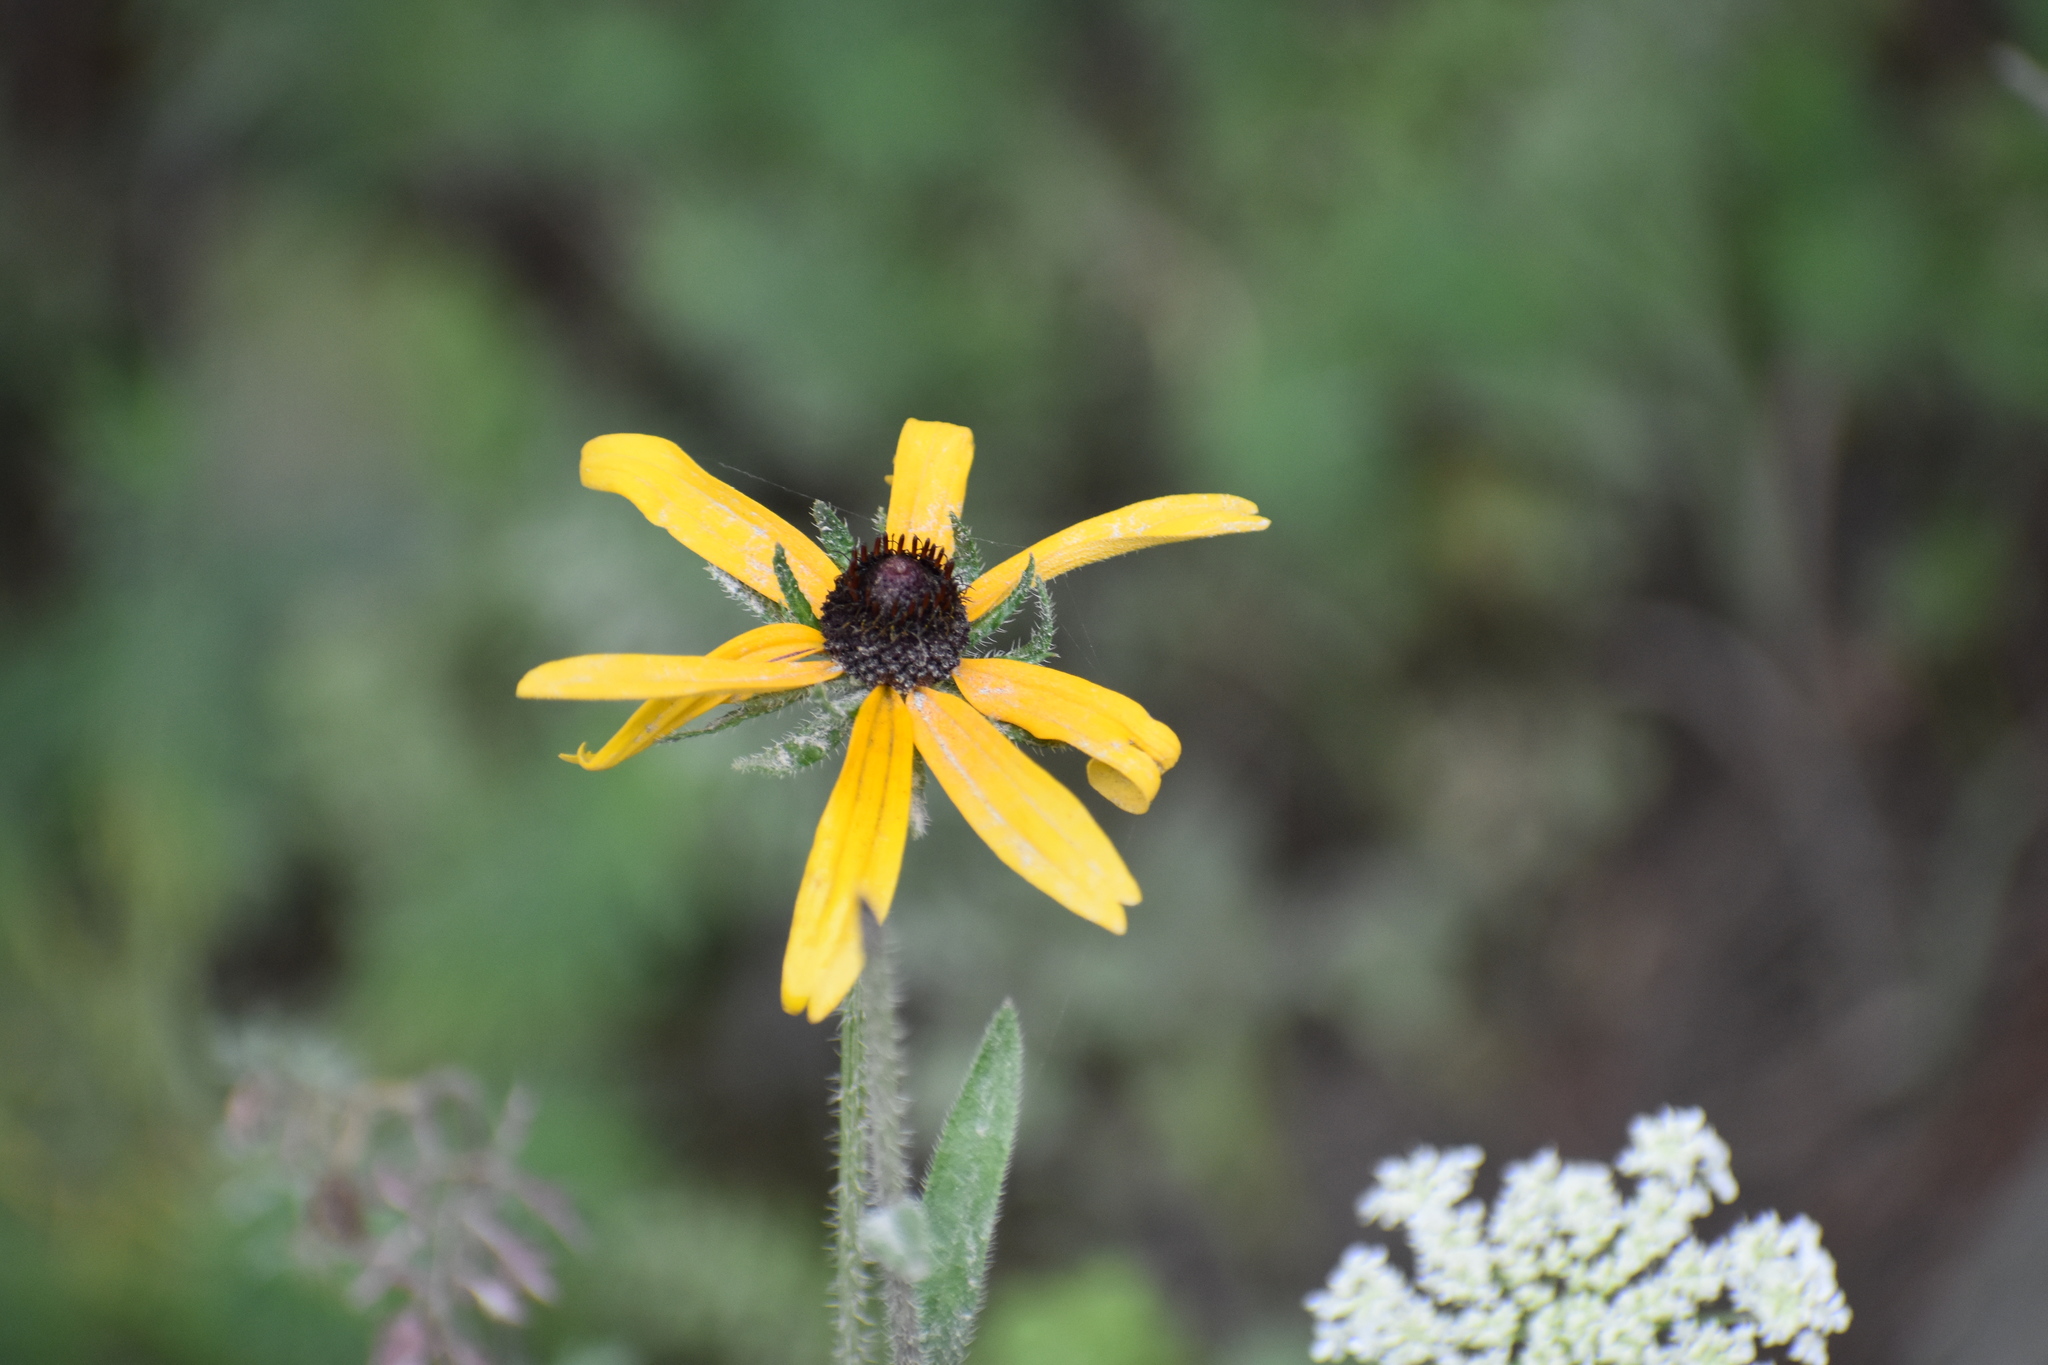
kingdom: Plantae
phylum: Tracheophyta
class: Magnoliopsida
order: Asterales
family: Asteraceae
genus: Rudbeckia
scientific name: Rudbeckia hirta
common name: Black-eyed-susan
